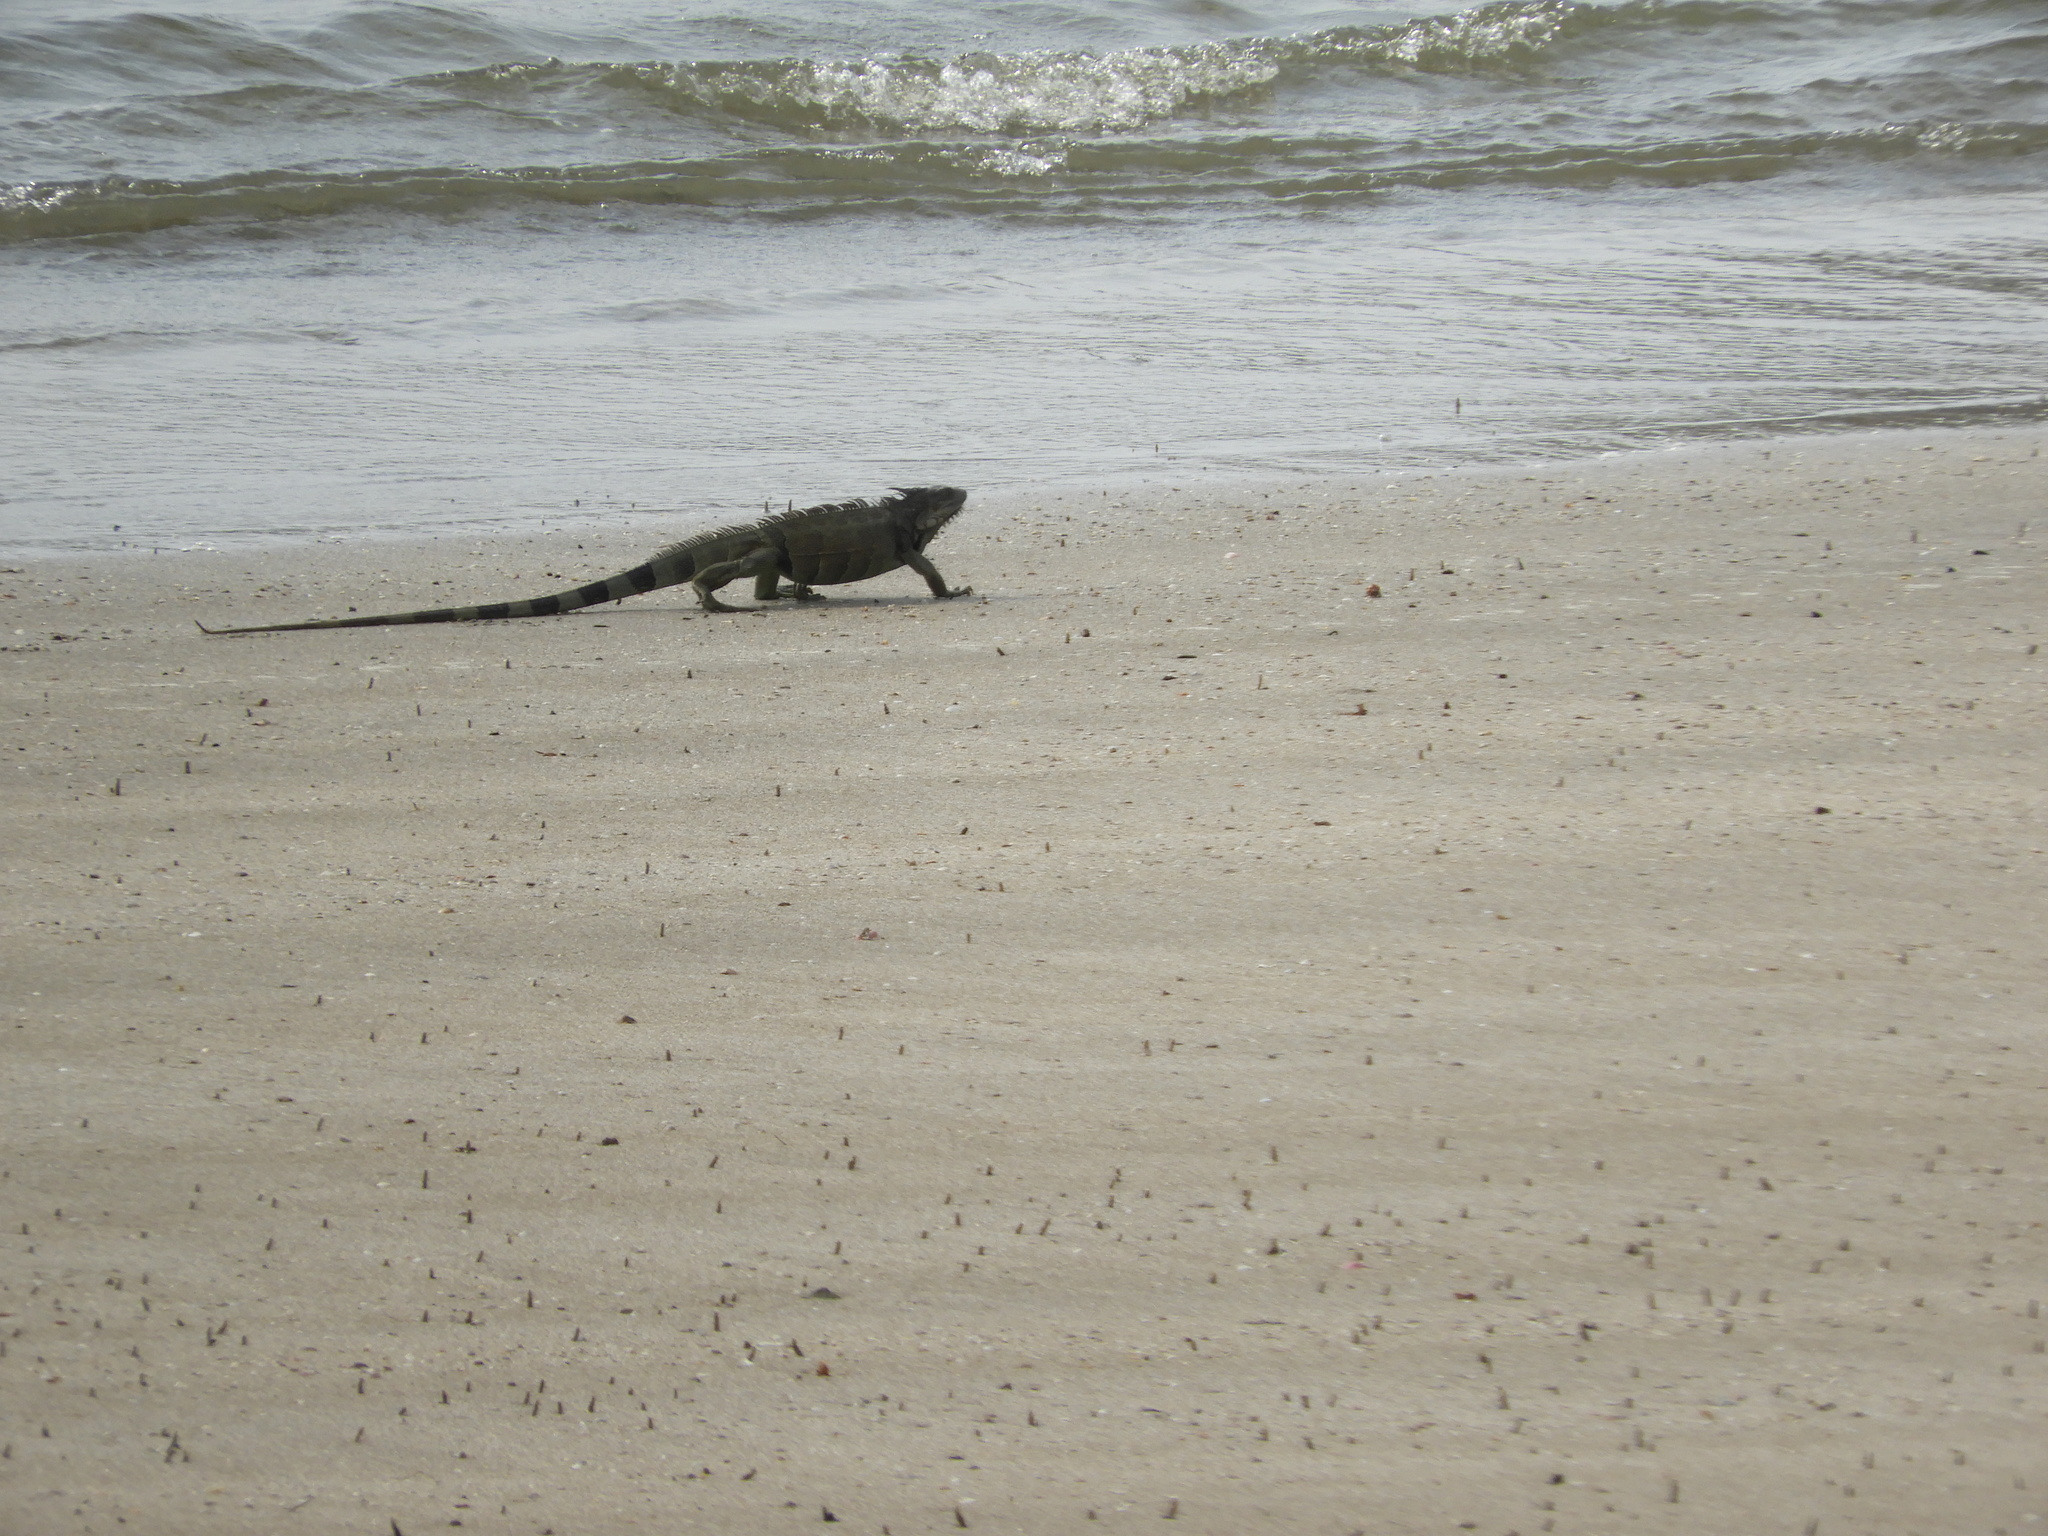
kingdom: Animalia
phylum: Chordata
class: Squamata
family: Iguanidae
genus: Iguana
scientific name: Iguana iguana
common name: Green iguana
